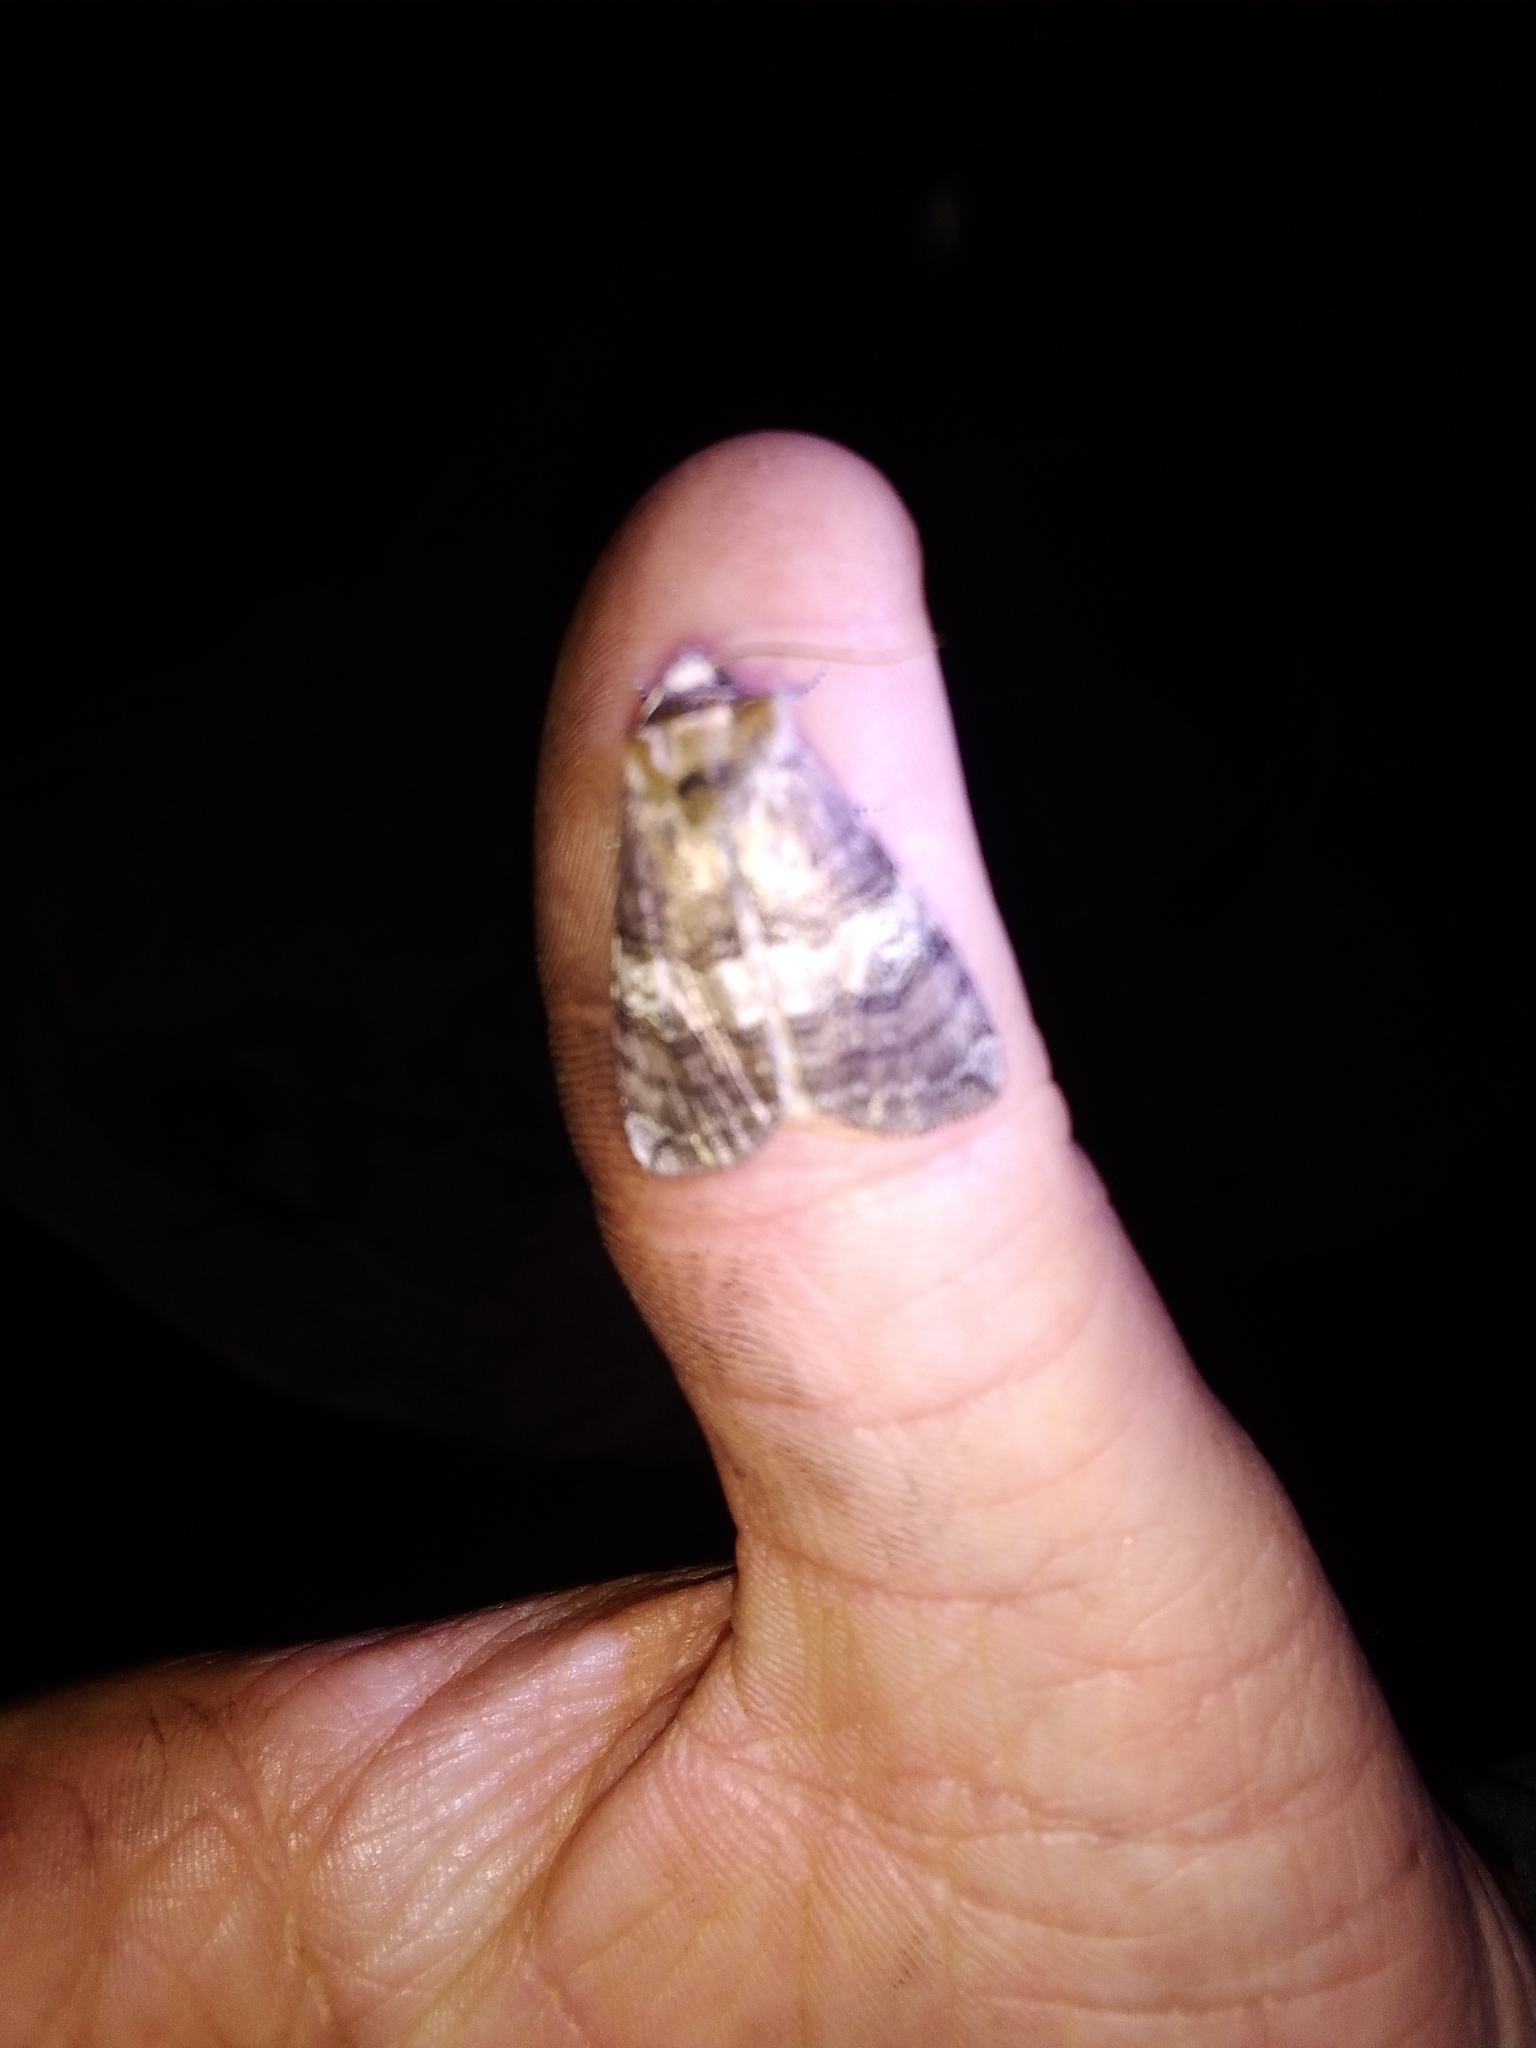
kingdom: Animalia
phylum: Arthropoda
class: Insecta
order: Lepidoptera
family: Drepanidae
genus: Tethea
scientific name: Tethea ocularis
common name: Figure of eighty
